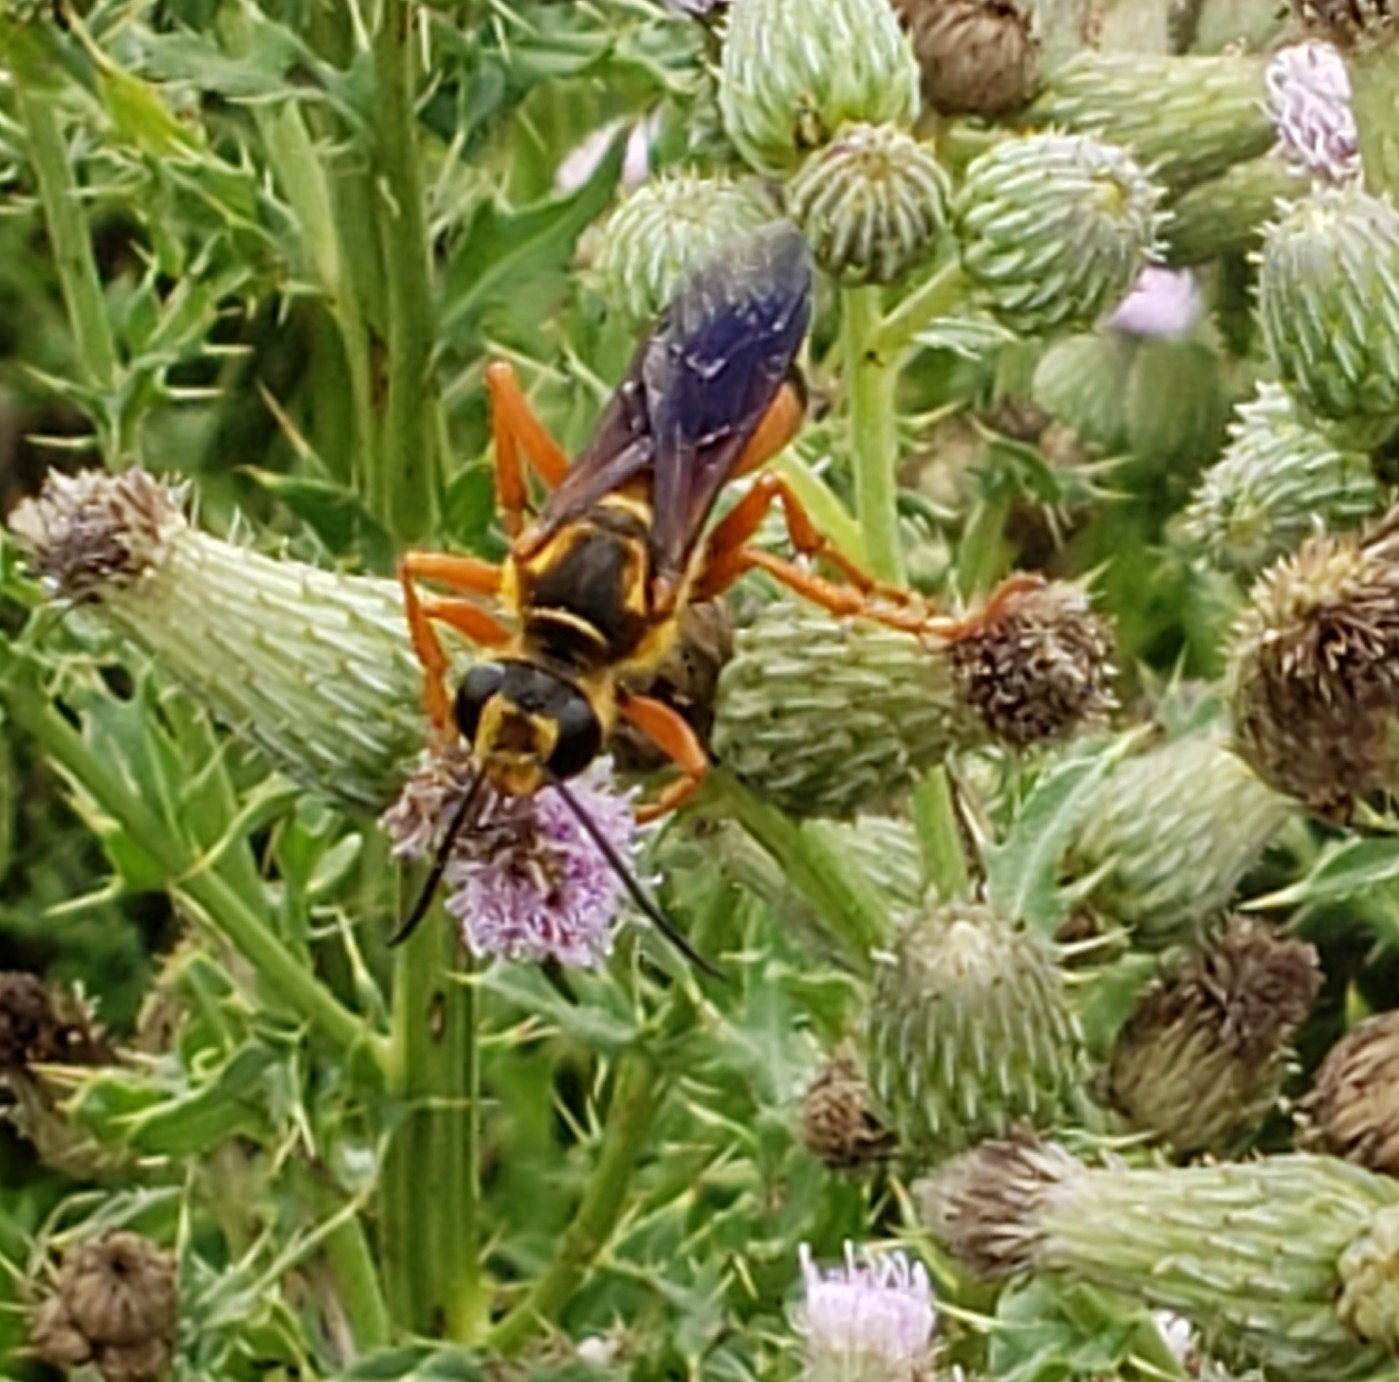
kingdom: Animalia
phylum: Arthropoda
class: Insecta
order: Hymenoptera
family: Sphecidae
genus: Sphex
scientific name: Sphex ichneumoneus
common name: Great golden digger wasp
